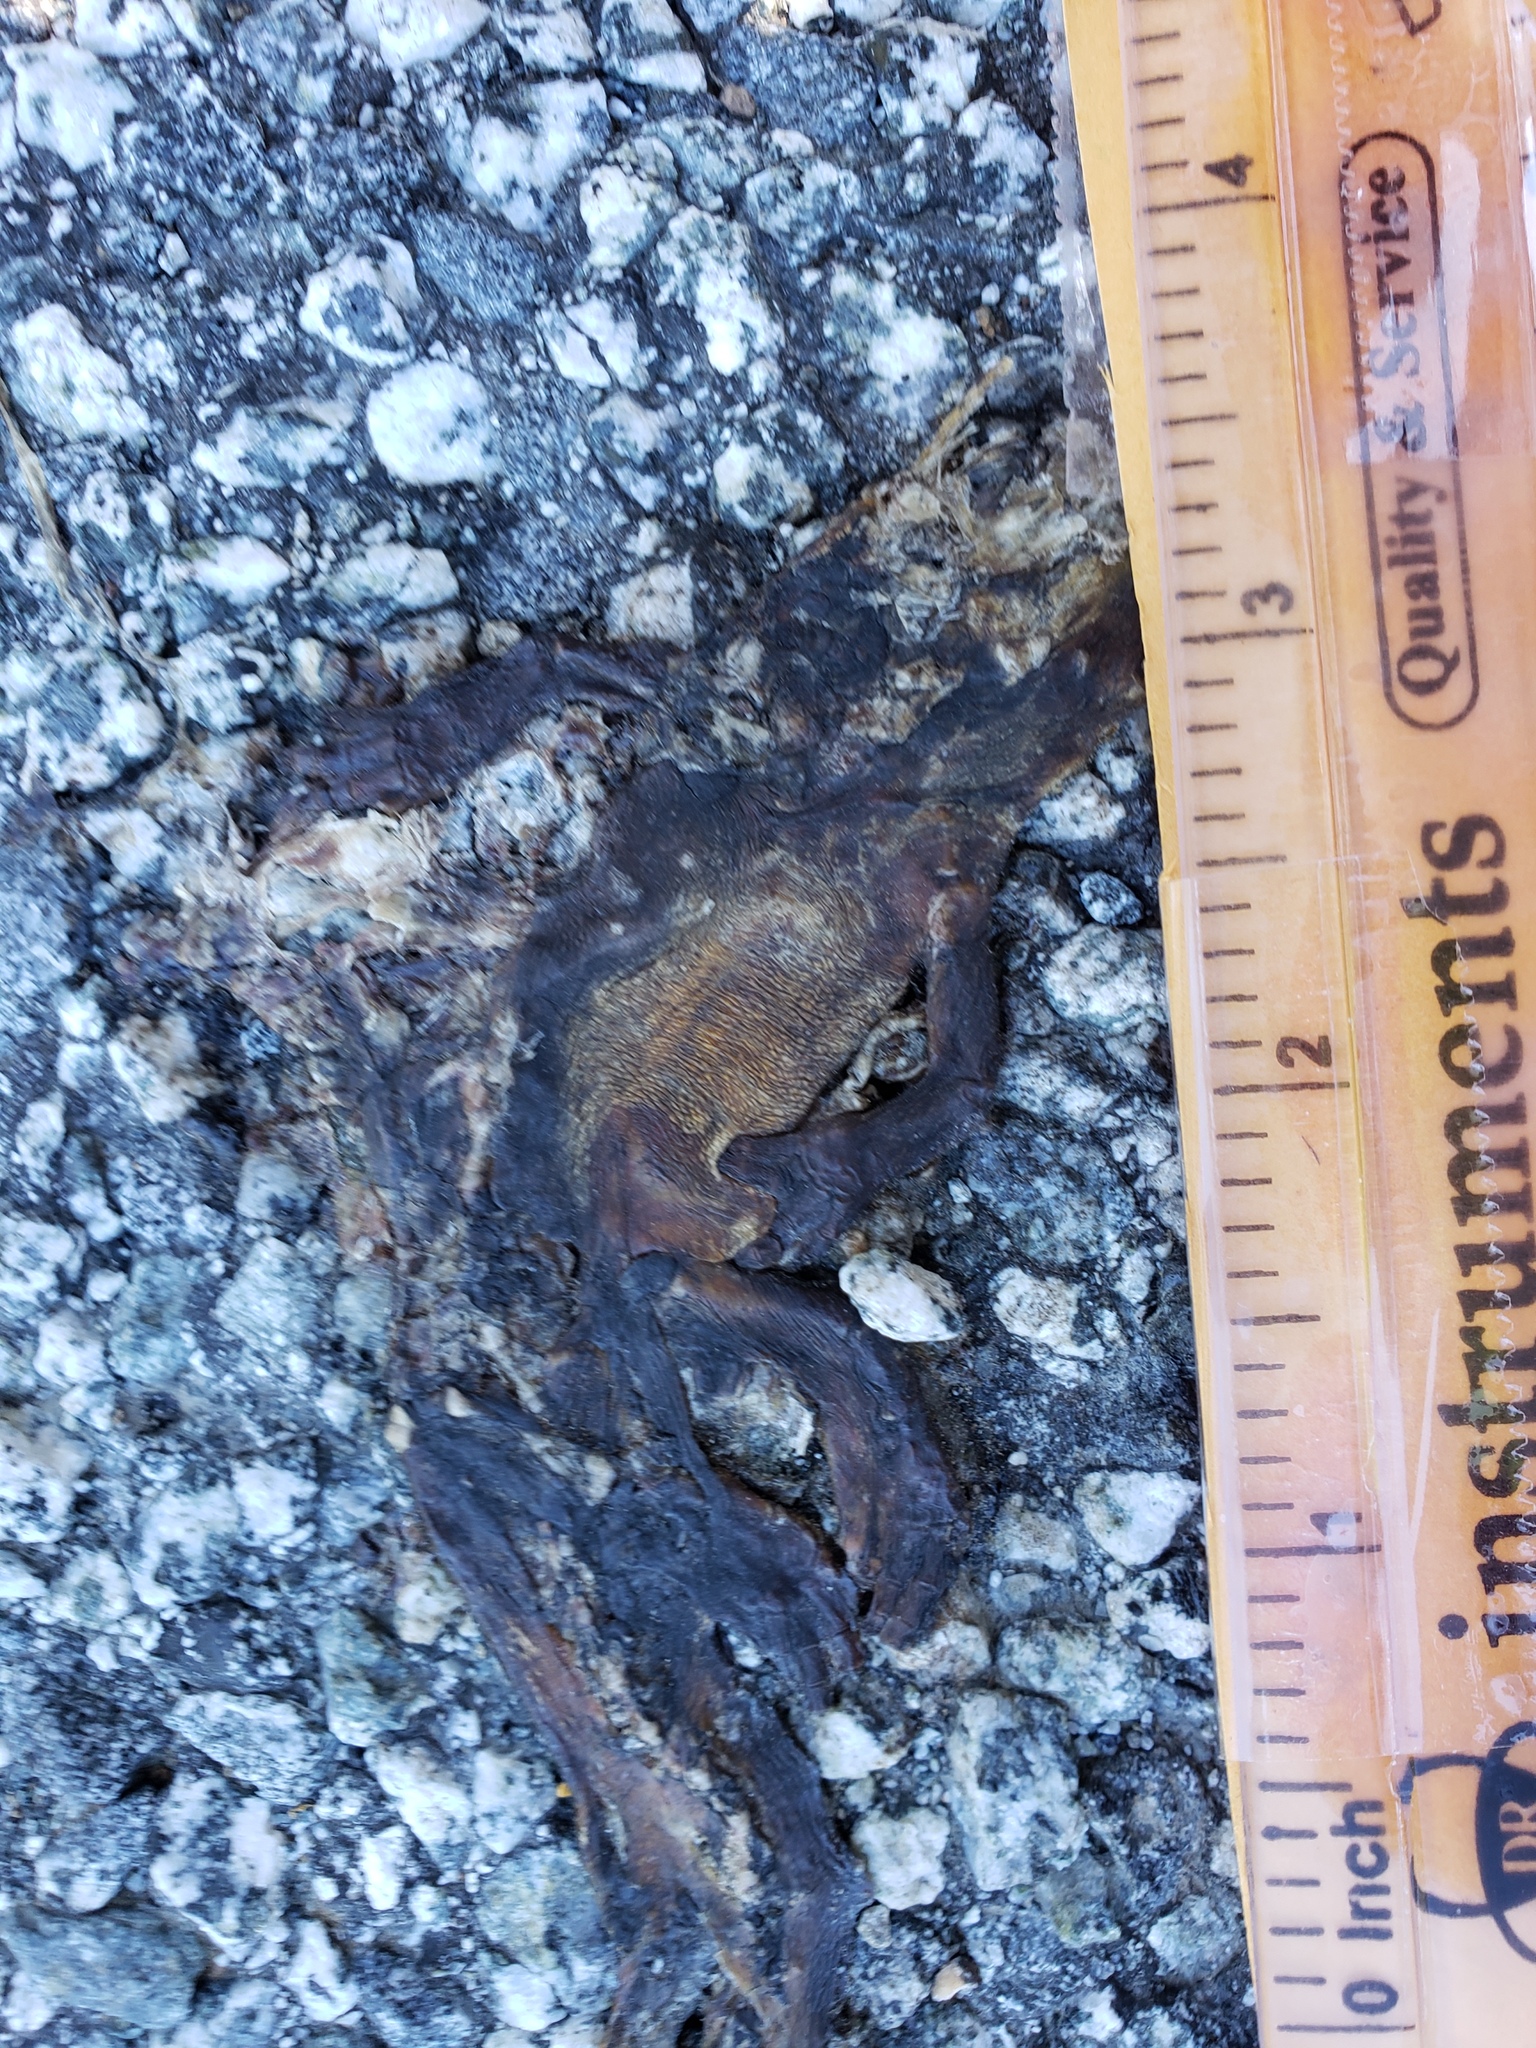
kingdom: Animalia
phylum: Chordata
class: Amphibia
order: Caudata
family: Salamandridae
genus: Taricha
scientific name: Taricha
